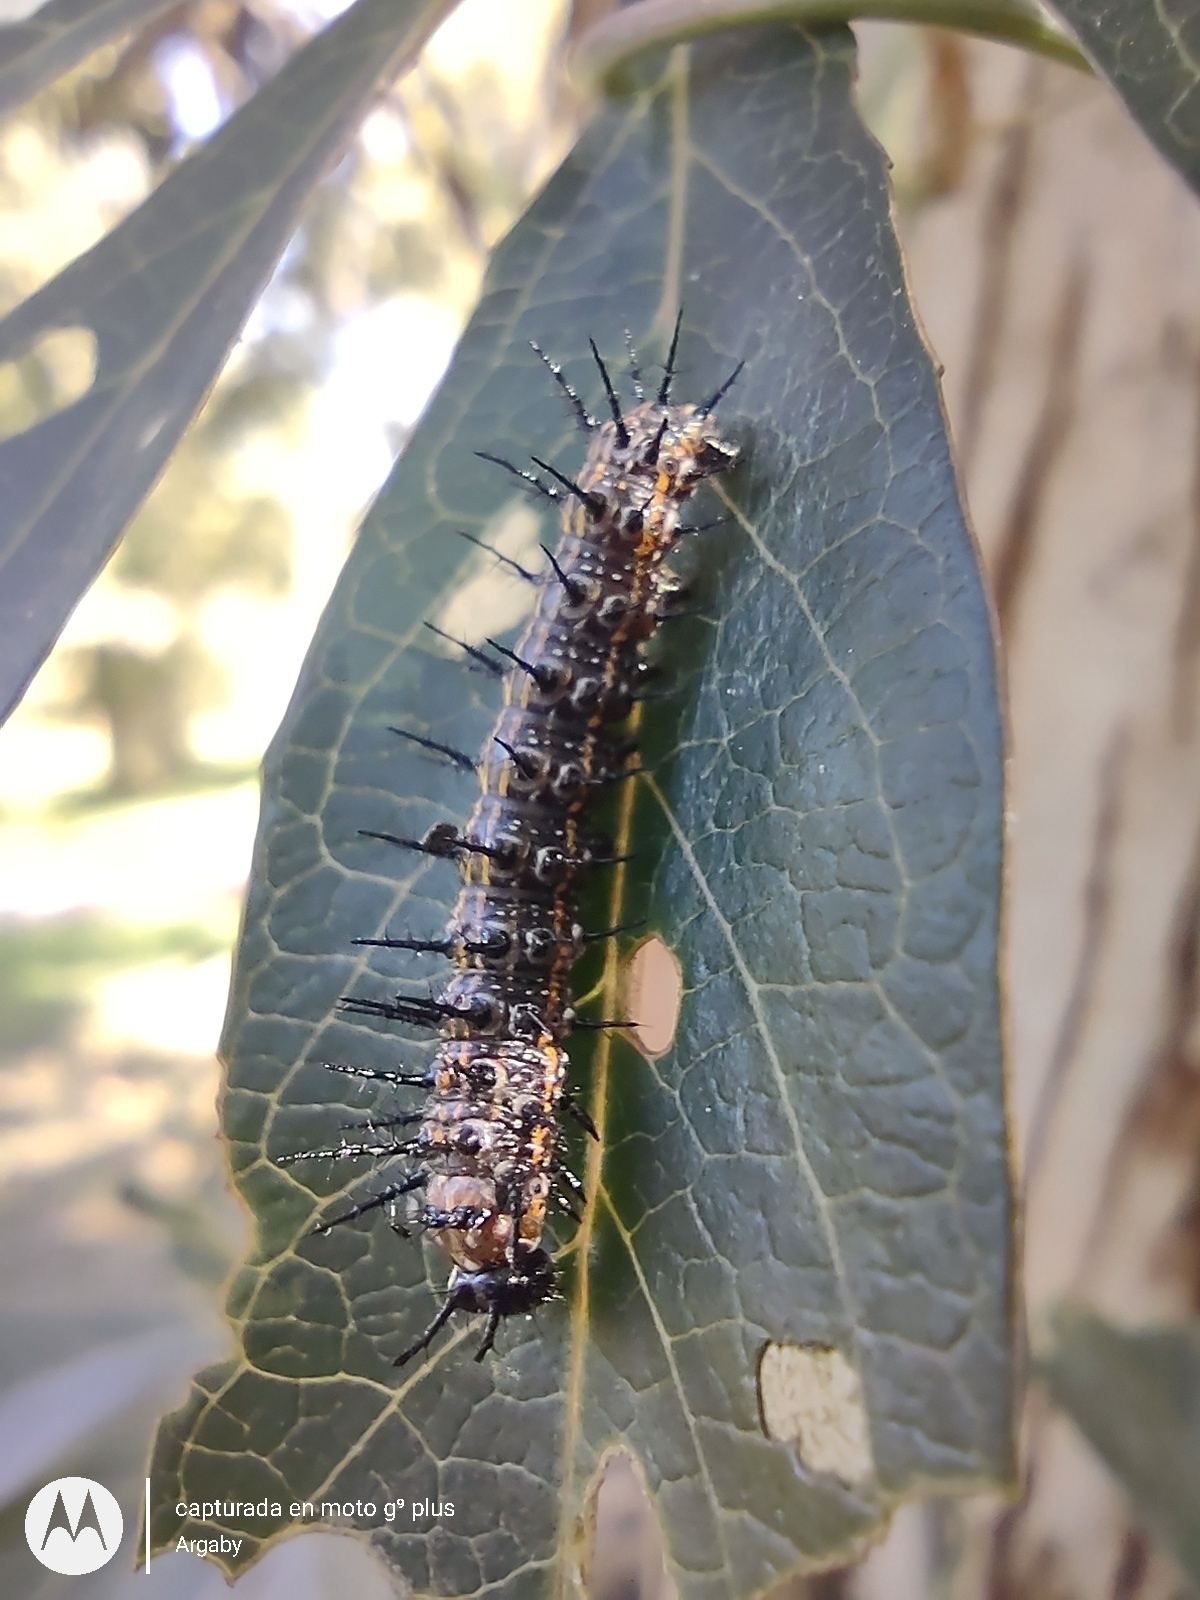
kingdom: Animalia
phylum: Arthropoda
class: Insecta
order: Lepidoptera
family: Nymphalidae
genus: Dione
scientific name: Dione vanillae
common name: Gulf fritillary
